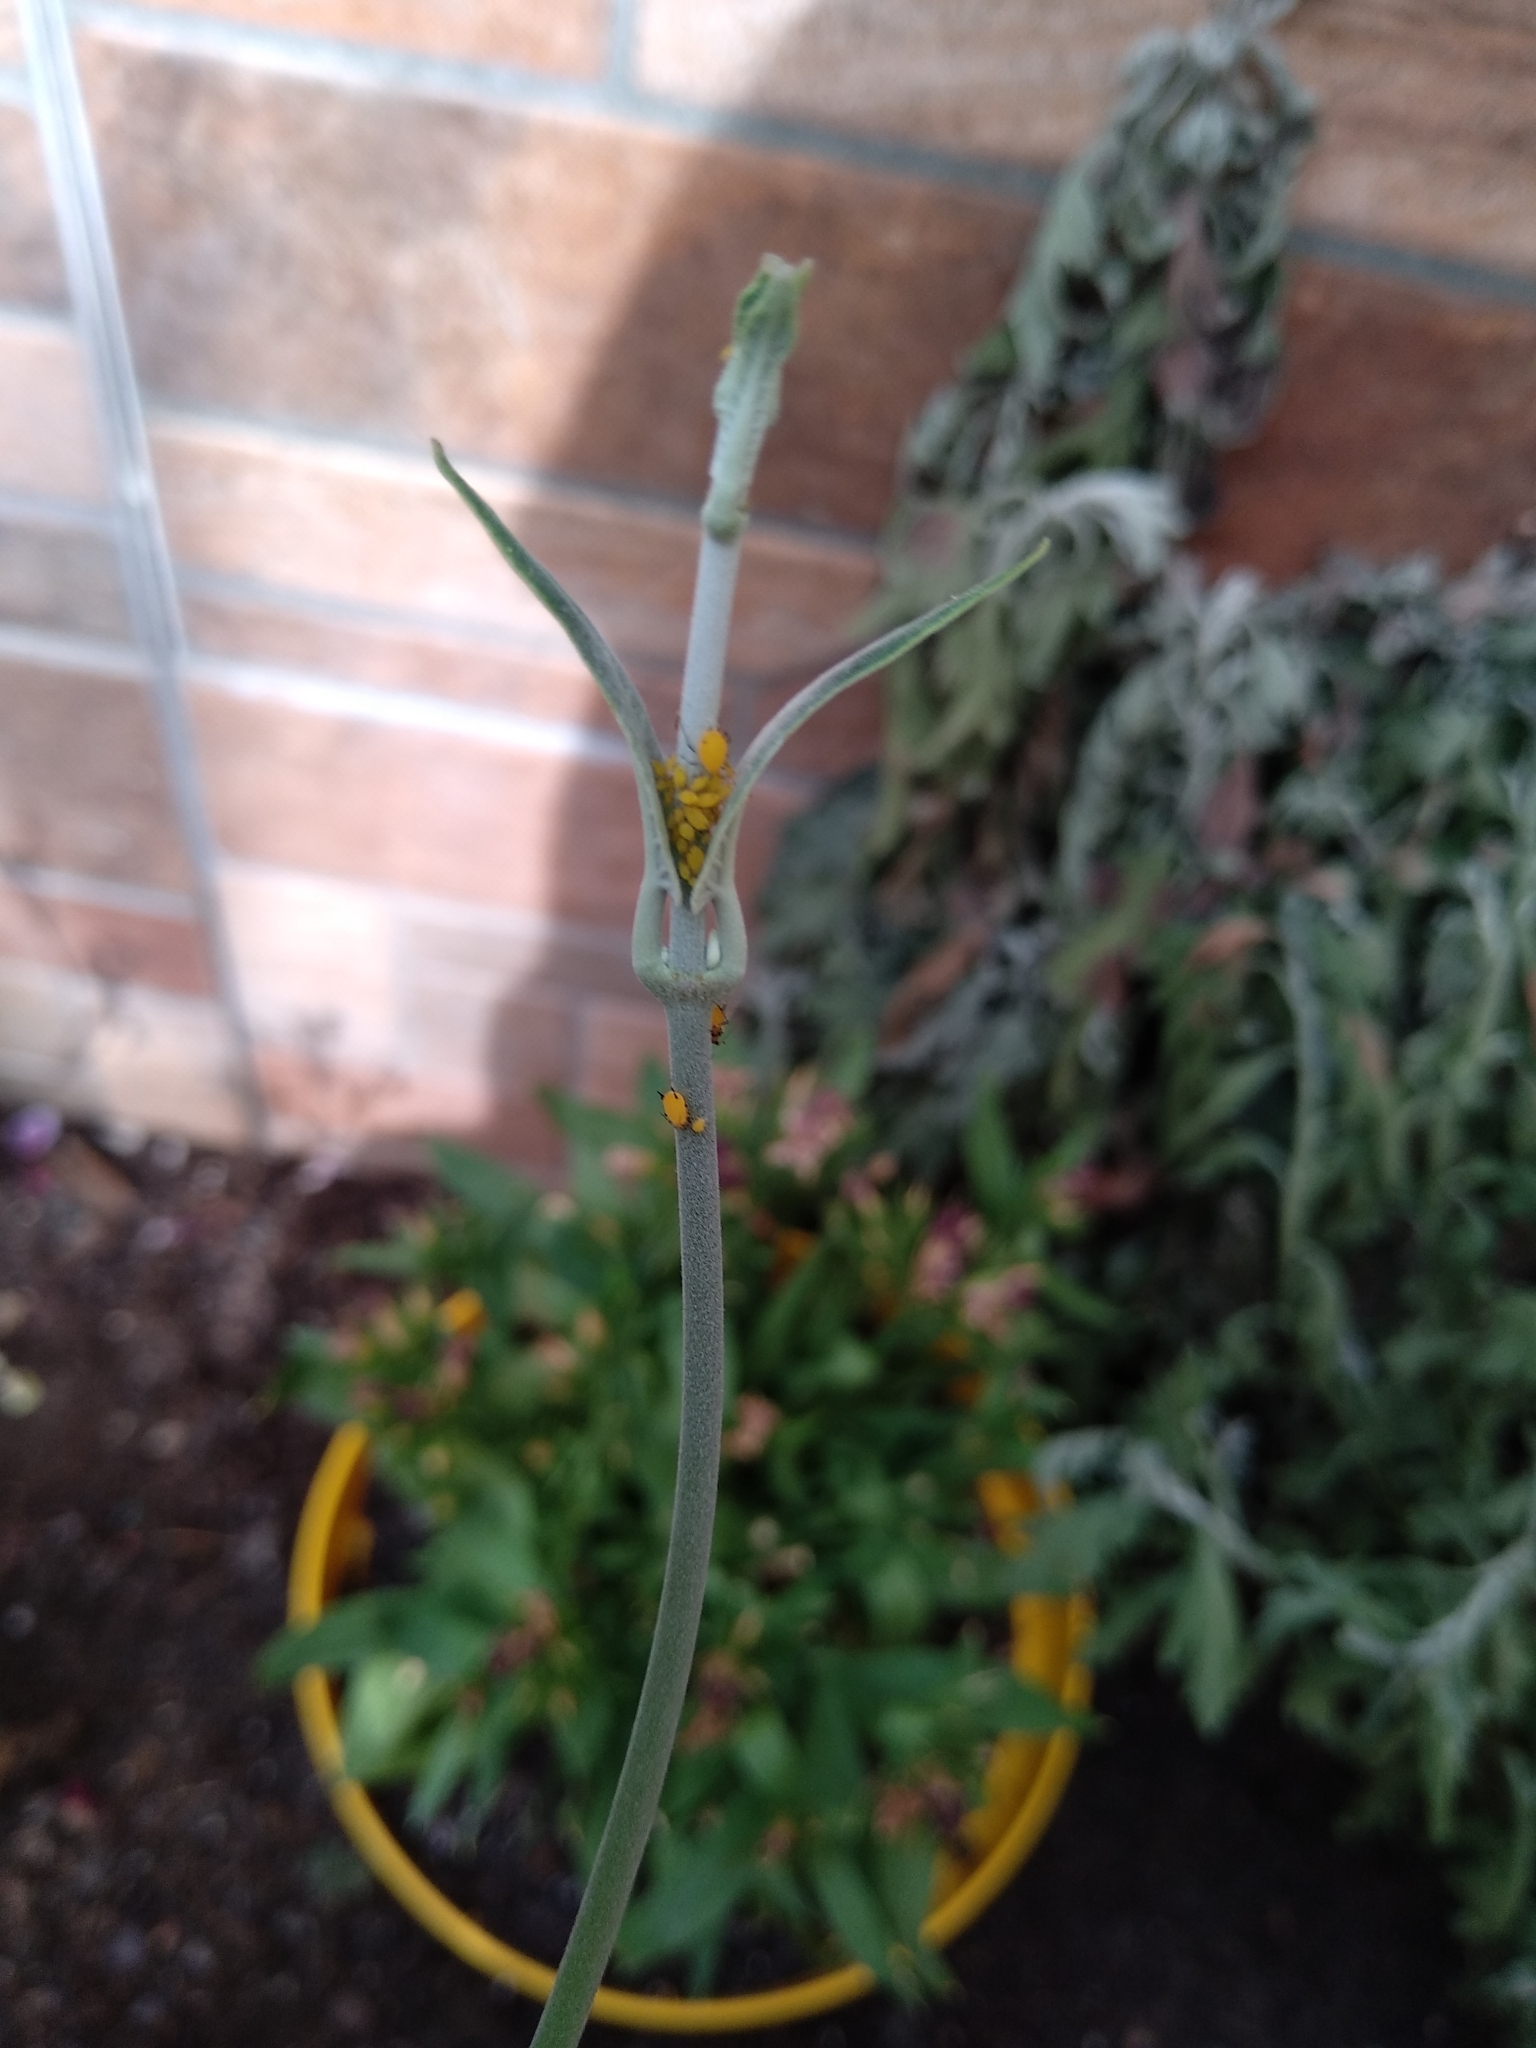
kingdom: Animalia
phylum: Arthropoda
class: Insecta
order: Hemiptera
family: Aphididae
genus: Aphis
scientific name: Aphis nerii
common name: Oleander aphid
